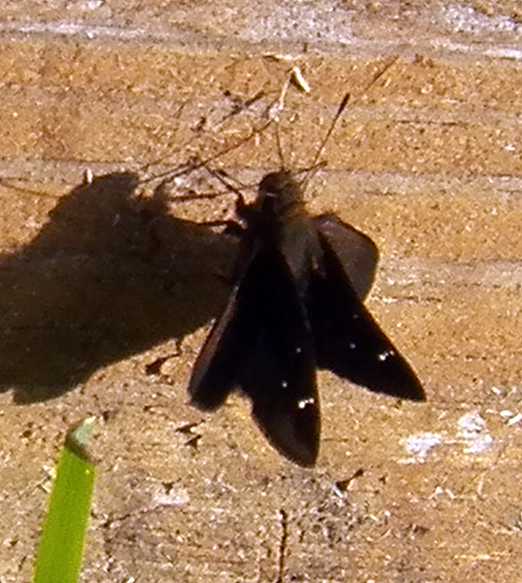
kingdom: Animalia
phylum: Arthropoda
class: Insecta
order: Lepidoptera
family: Hesperiidae
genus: Lerema
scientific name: Lerema accius
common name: Clouded skipper
